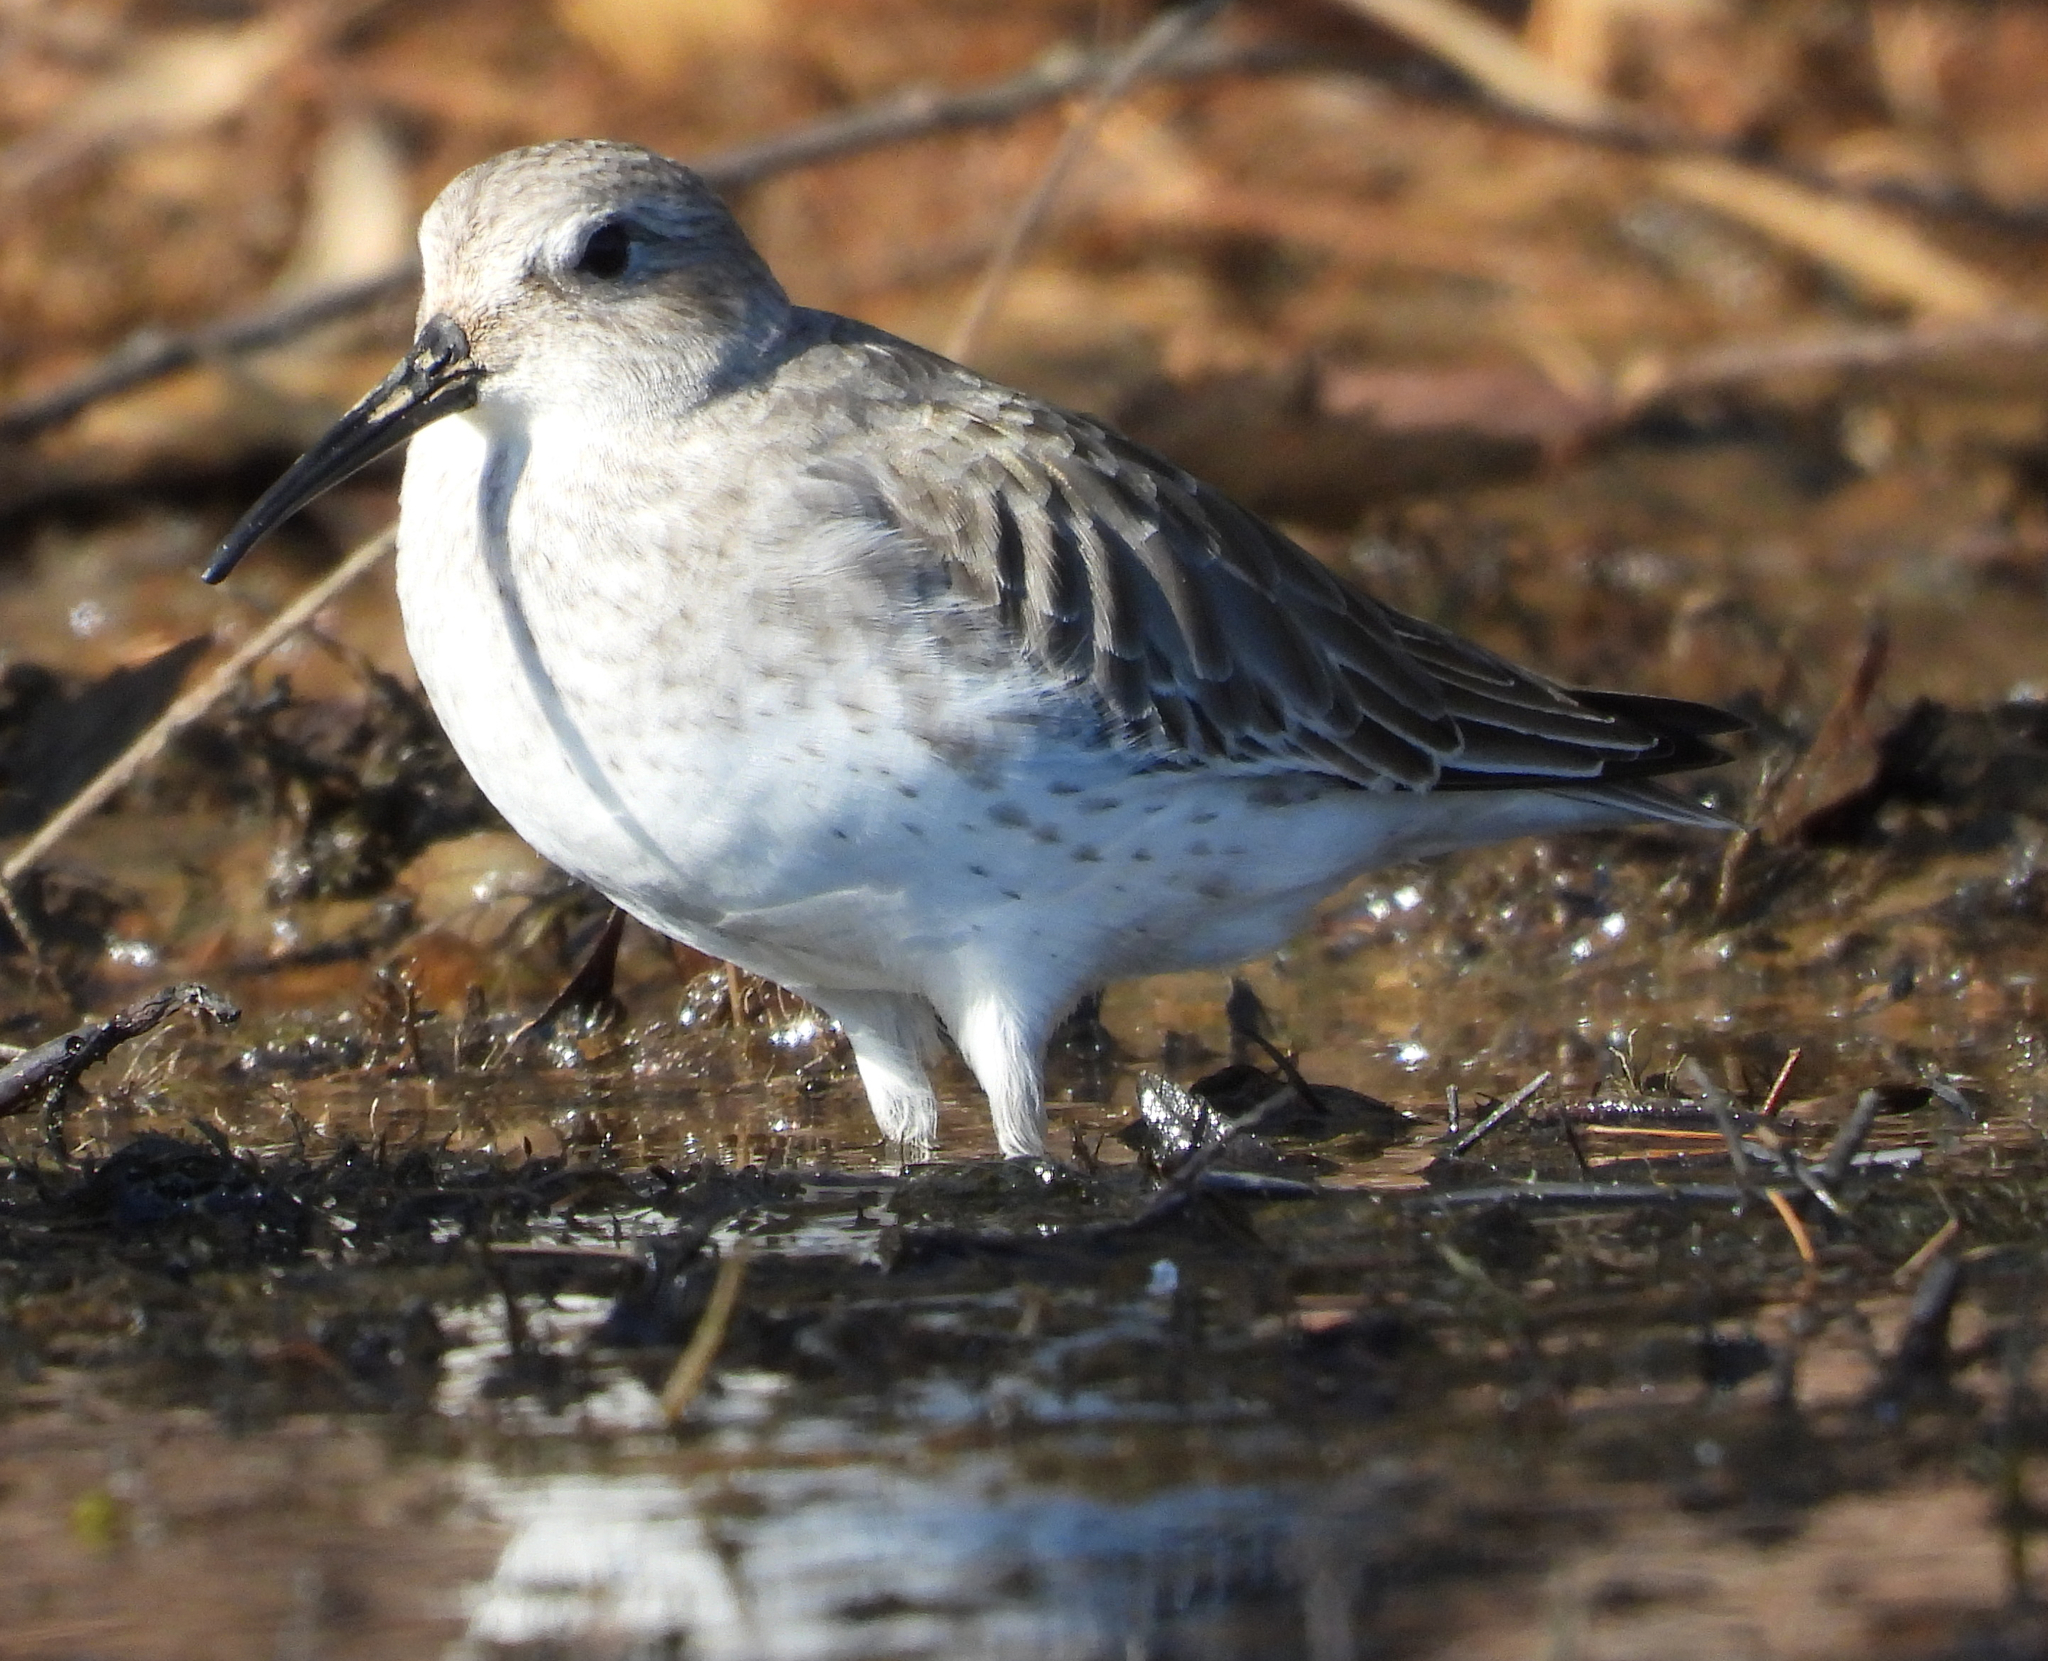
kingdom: Animalia
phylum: Chordata
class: Aves
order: Charadriiformes
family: Scolopacidae
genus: Calidris
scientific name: Calidris alpina
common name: Dunlin
